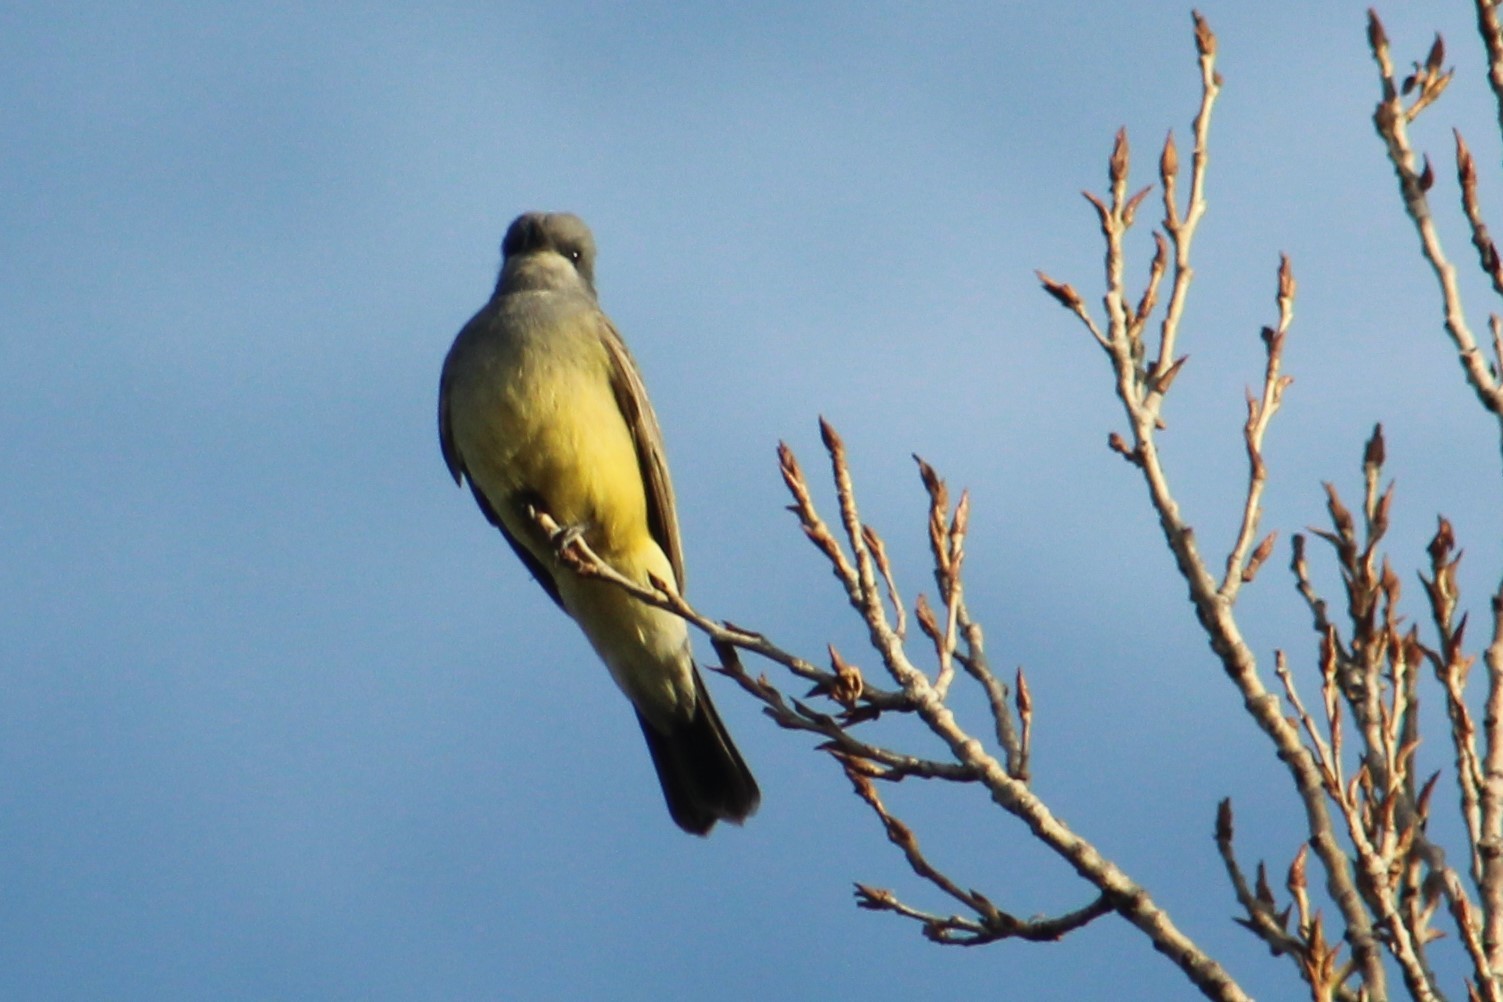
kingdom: Animalia
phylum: Chordata
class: Aves
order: Passeriformes
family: Tyrannidae
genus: Tyrannus
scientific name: Tyrannus vociferans
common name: Cassin's kingbird
